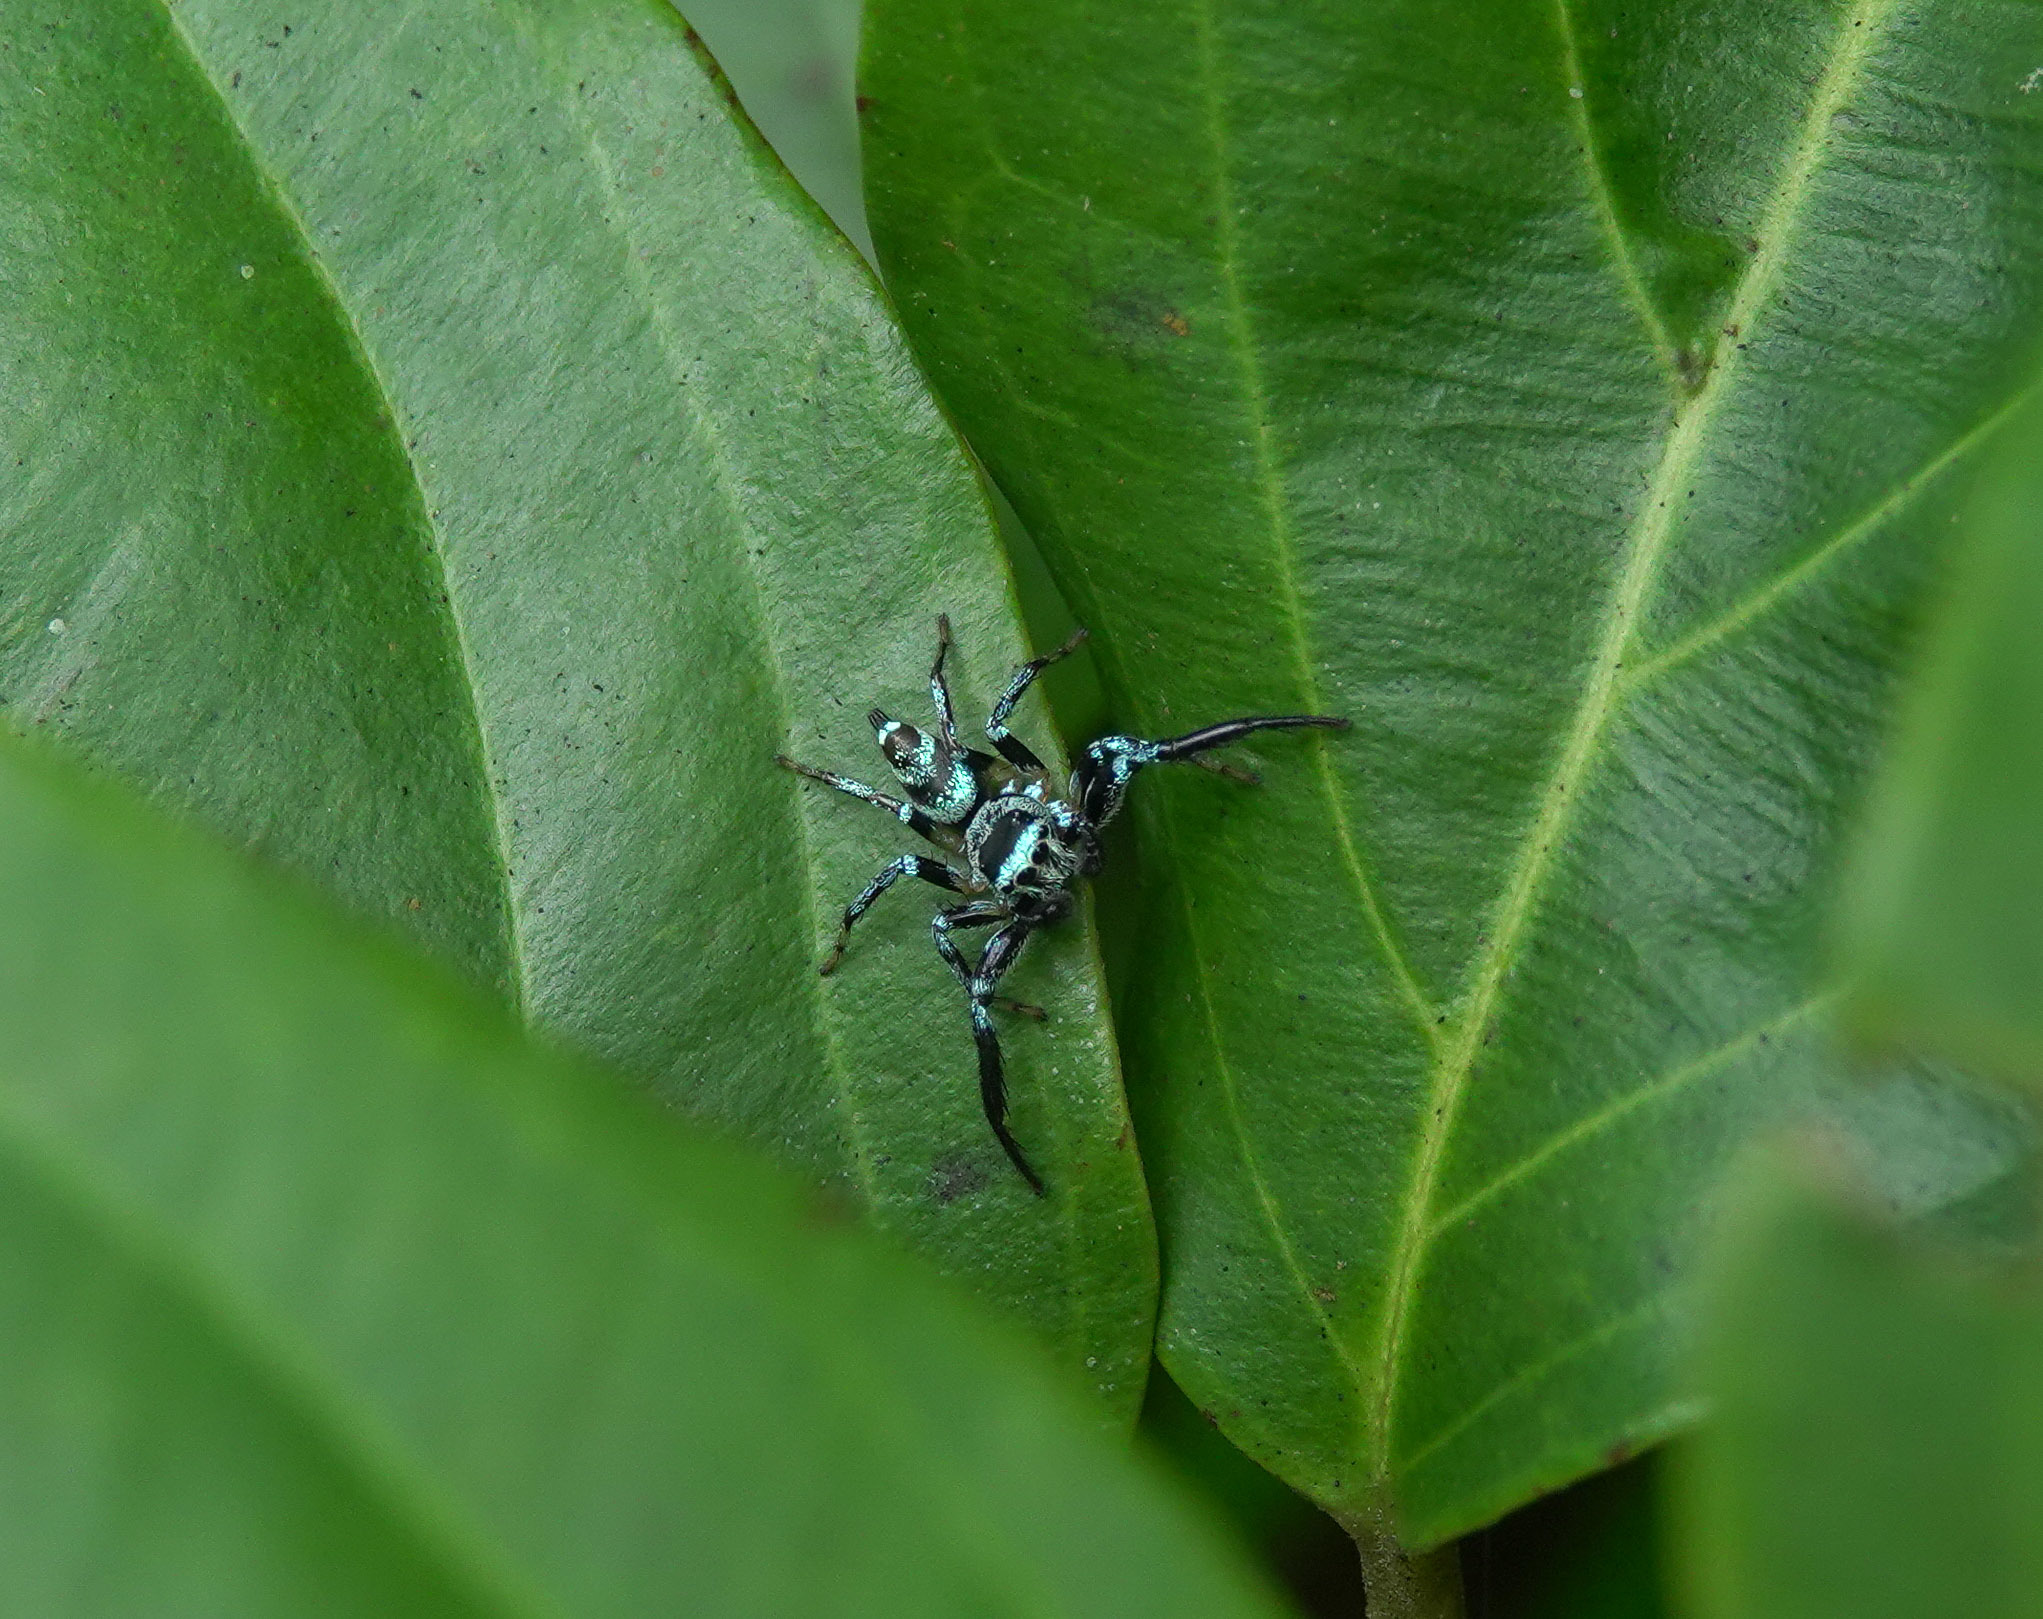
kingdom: Animalia
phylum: Arthropoda
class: Arachnida
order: Araneae
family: Salticidae
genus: Thiania
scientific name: Thiania bhamoensis
